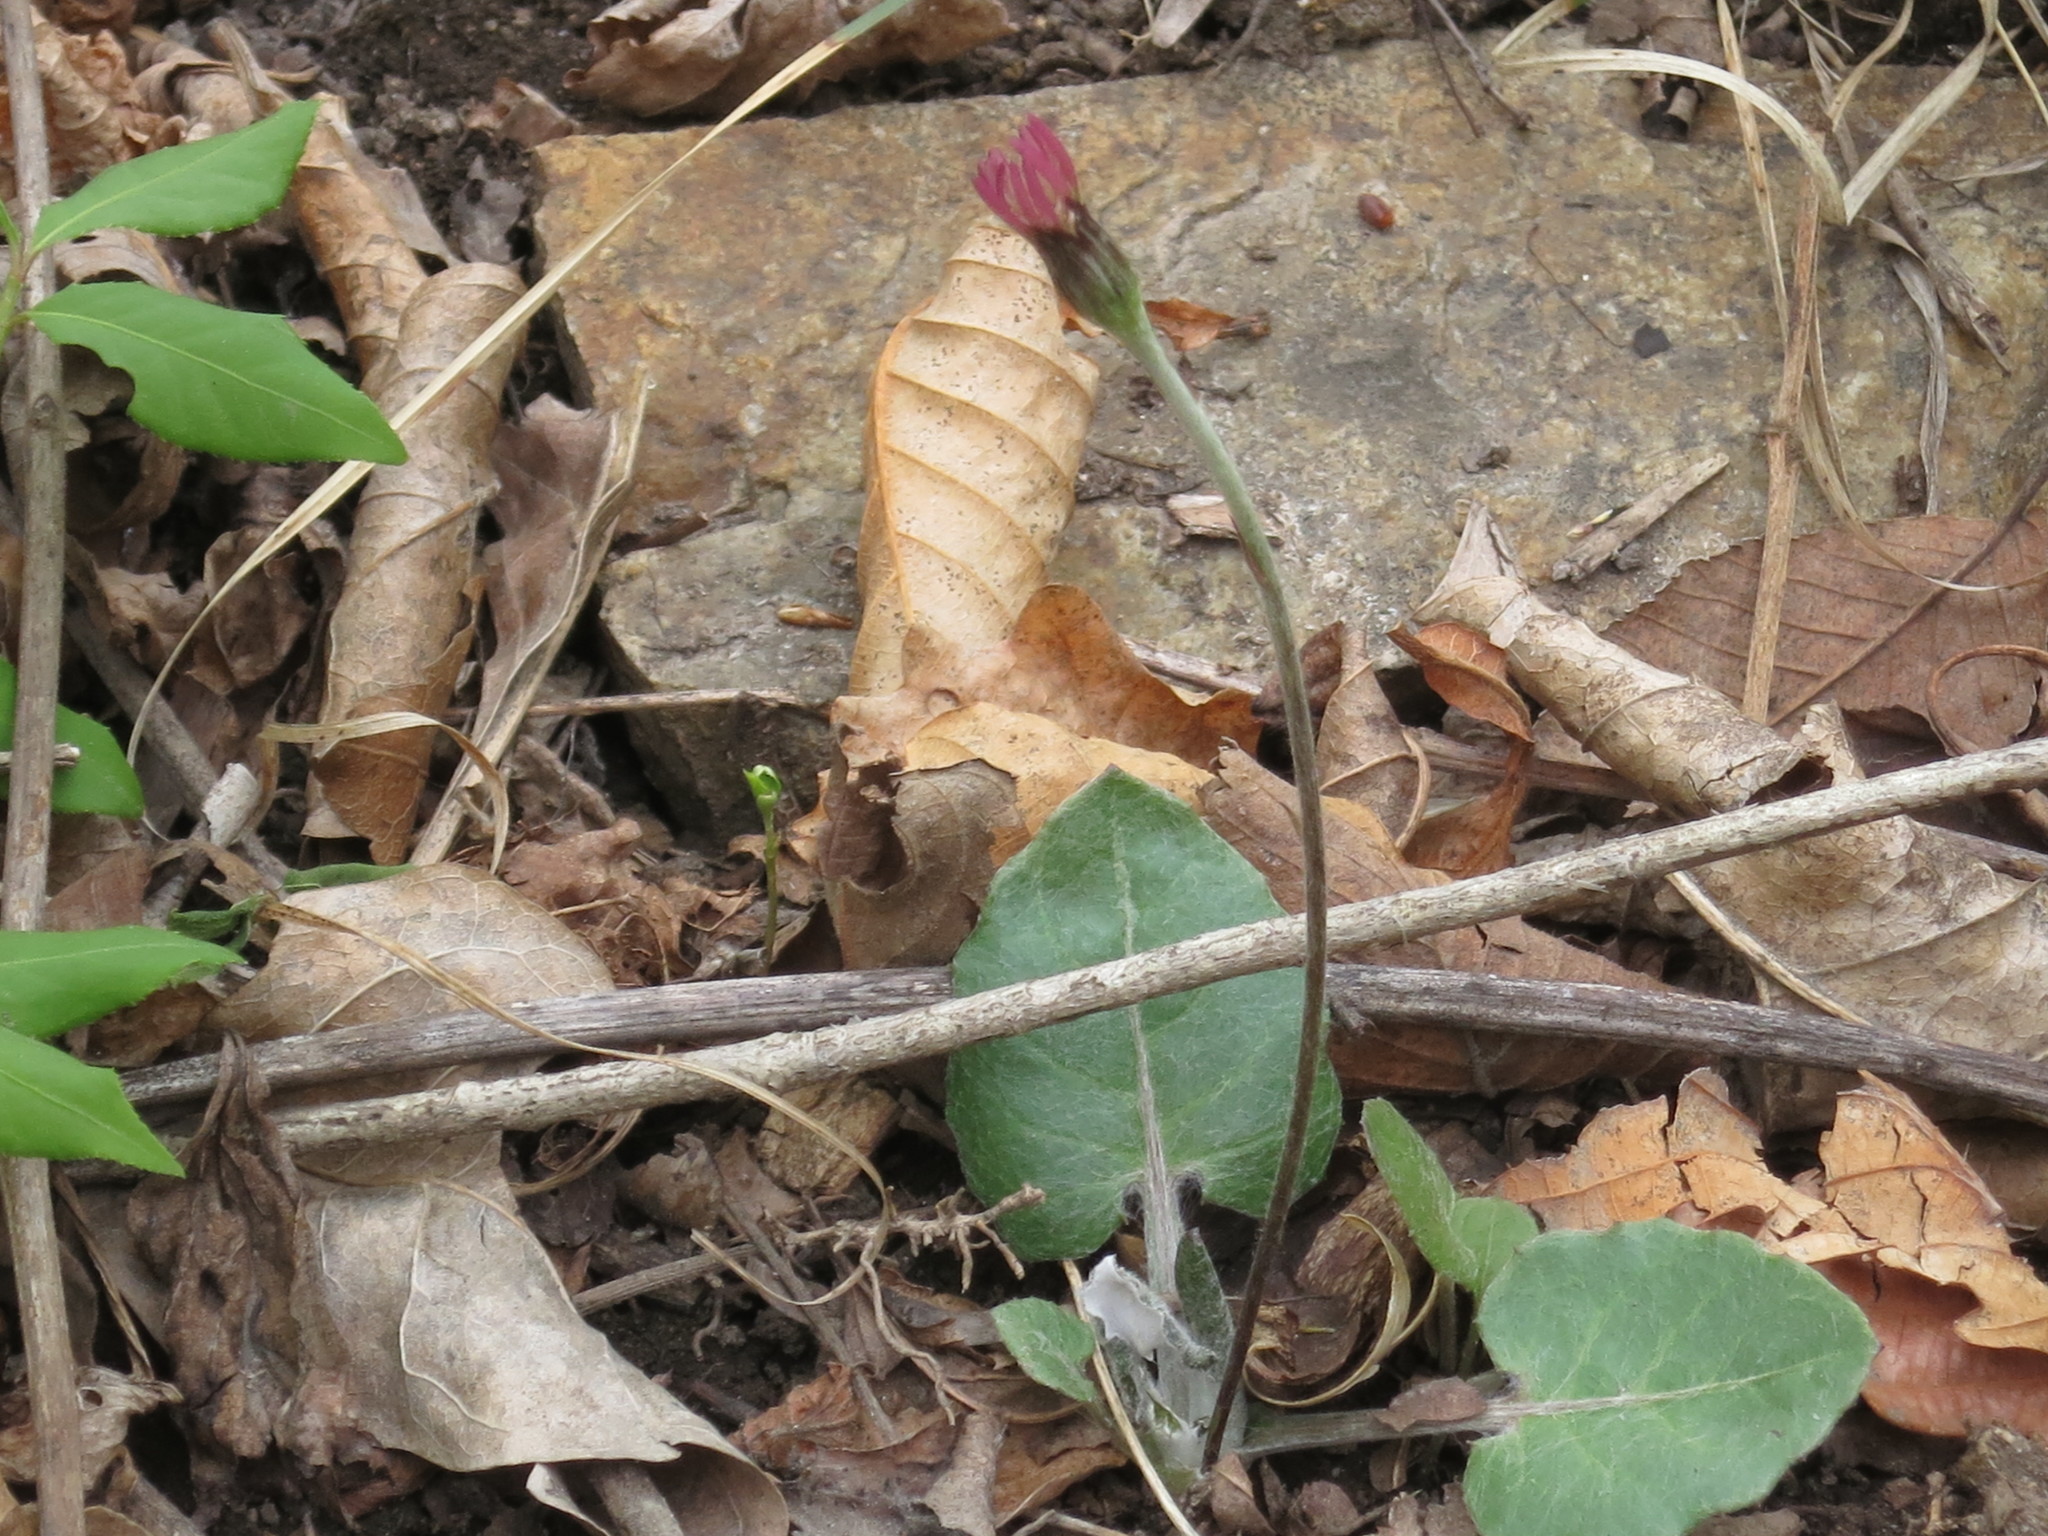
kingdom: Plantae
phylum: Tracheophyta
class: Magnoliopsida
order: Asterales
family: Asteraceae
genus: Leibnitzia
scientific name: Leibnitzia anandria
